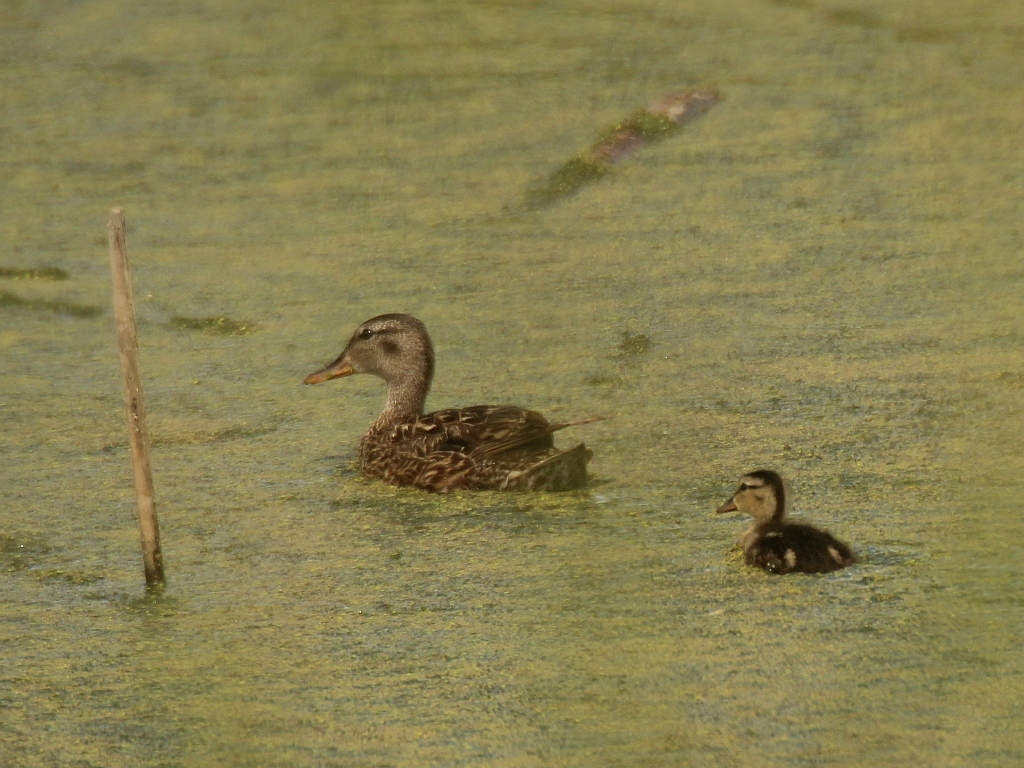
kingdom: Animalia
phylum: Chordata
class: Aves
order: Anseriformes
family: Anatidae
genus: Mareca
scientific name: Mareca strepera
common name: Gadwall
